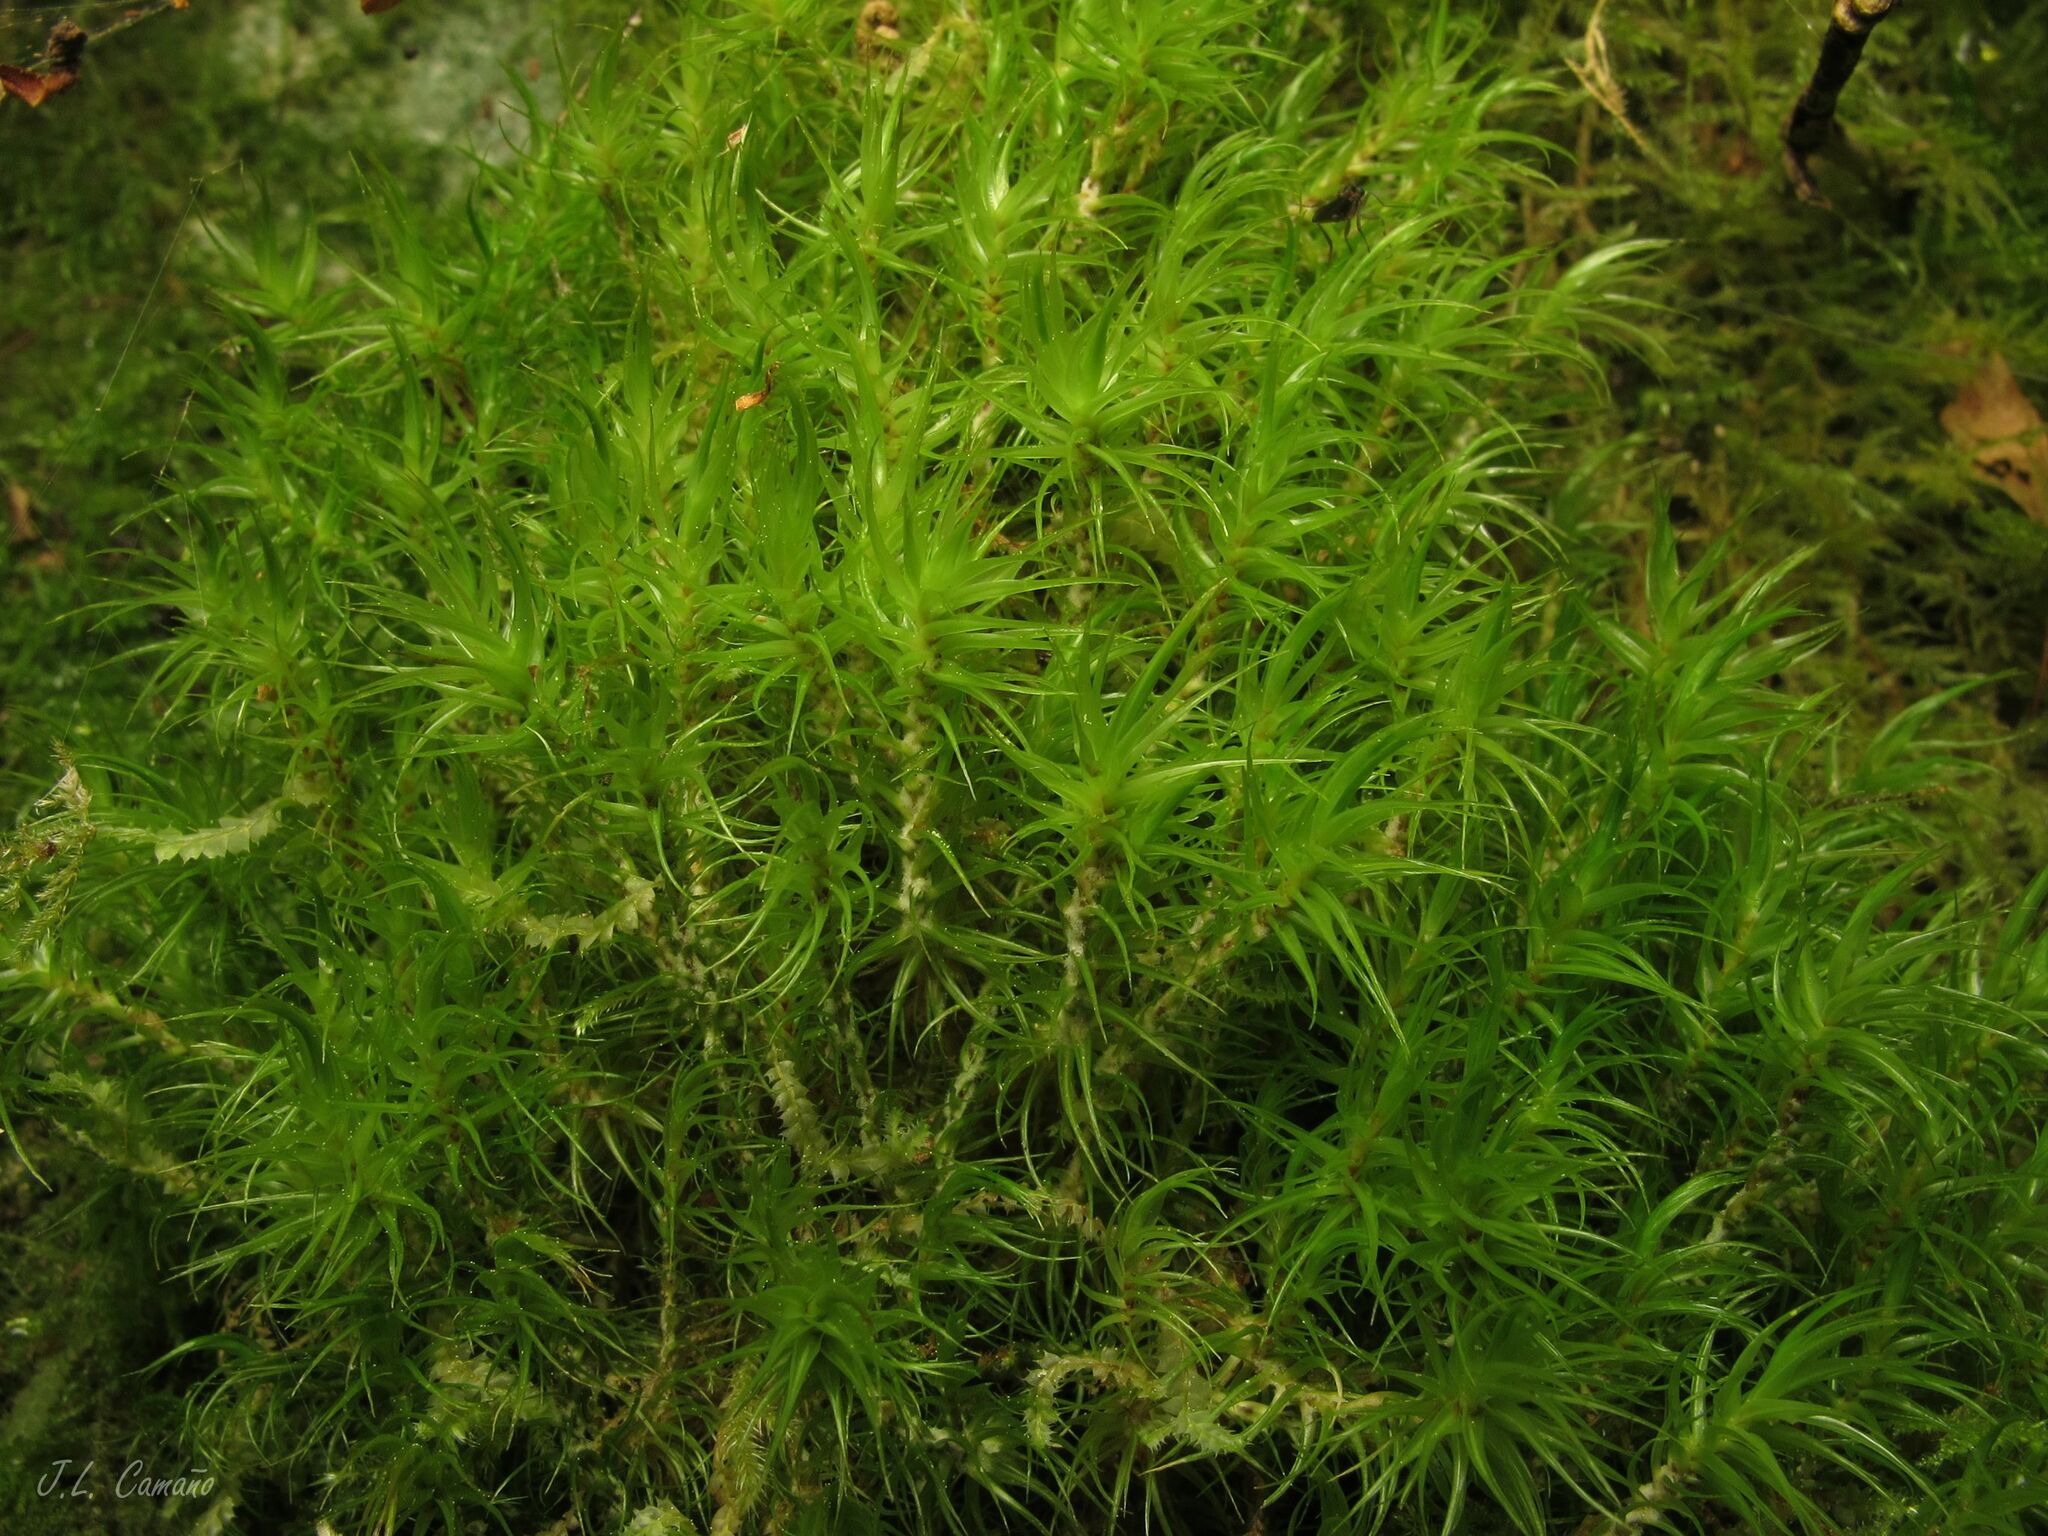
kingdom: Plantae
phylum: Bryophyta
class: Bryopsida
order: Dicranales
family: Dicranaceae
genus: Dicranum
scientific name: Dicranum scoparium
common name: Broom fork-moss
